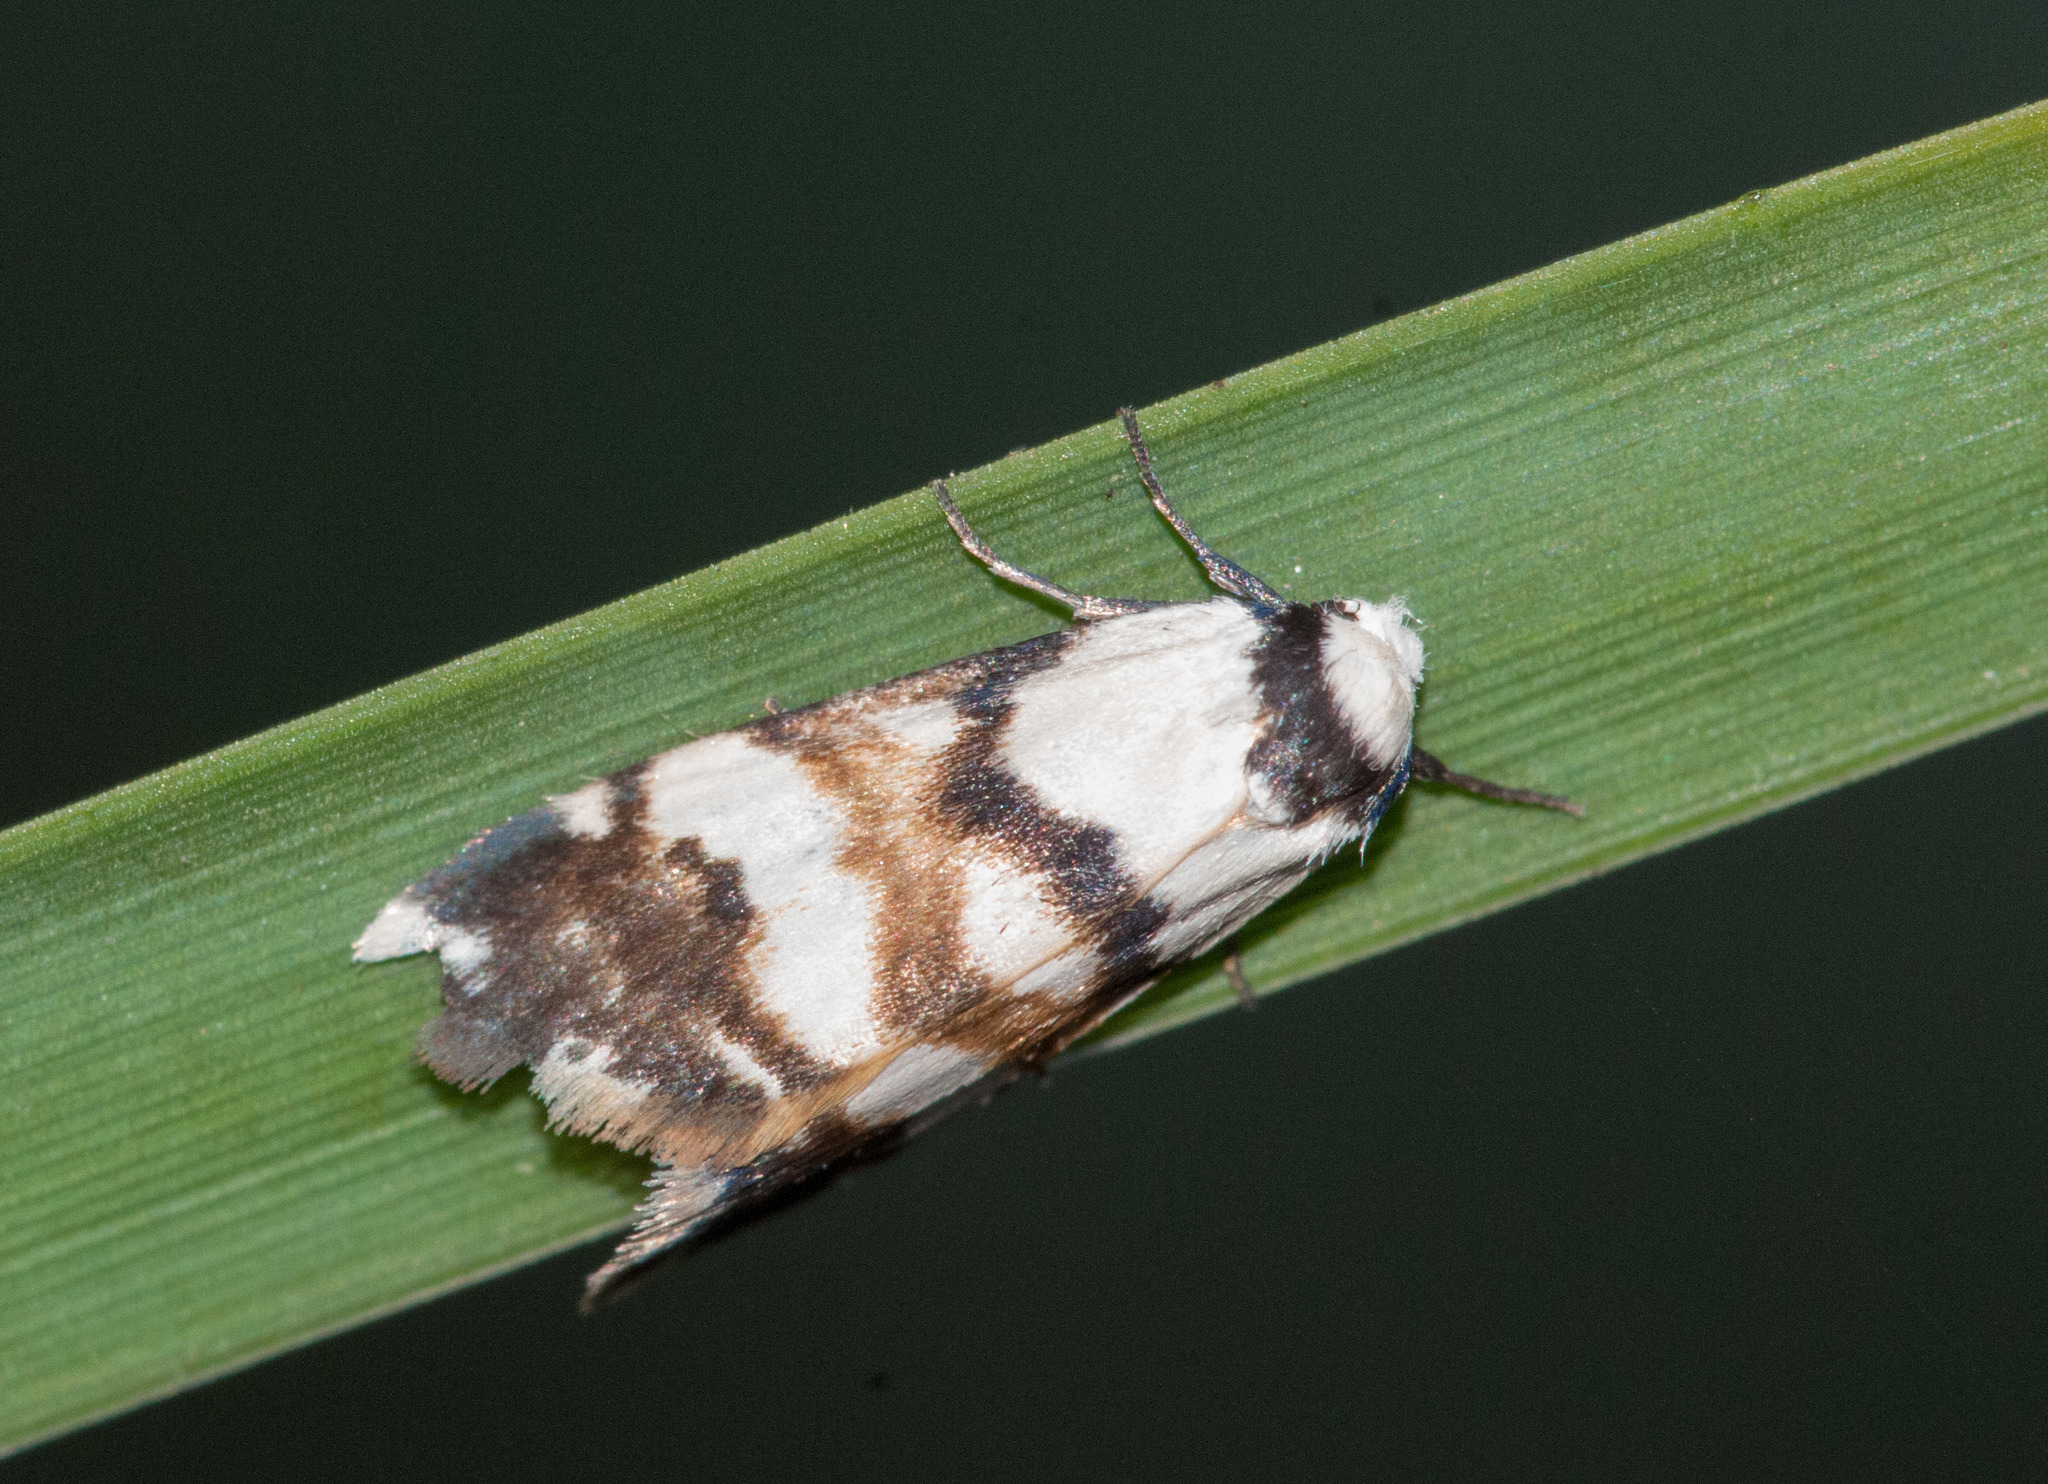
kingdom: Animalia
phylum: Arthropoda
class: Insecta
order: Lepidoptera
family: Erebidae
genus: Thallarcha
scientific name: Thallarcha albicollis
